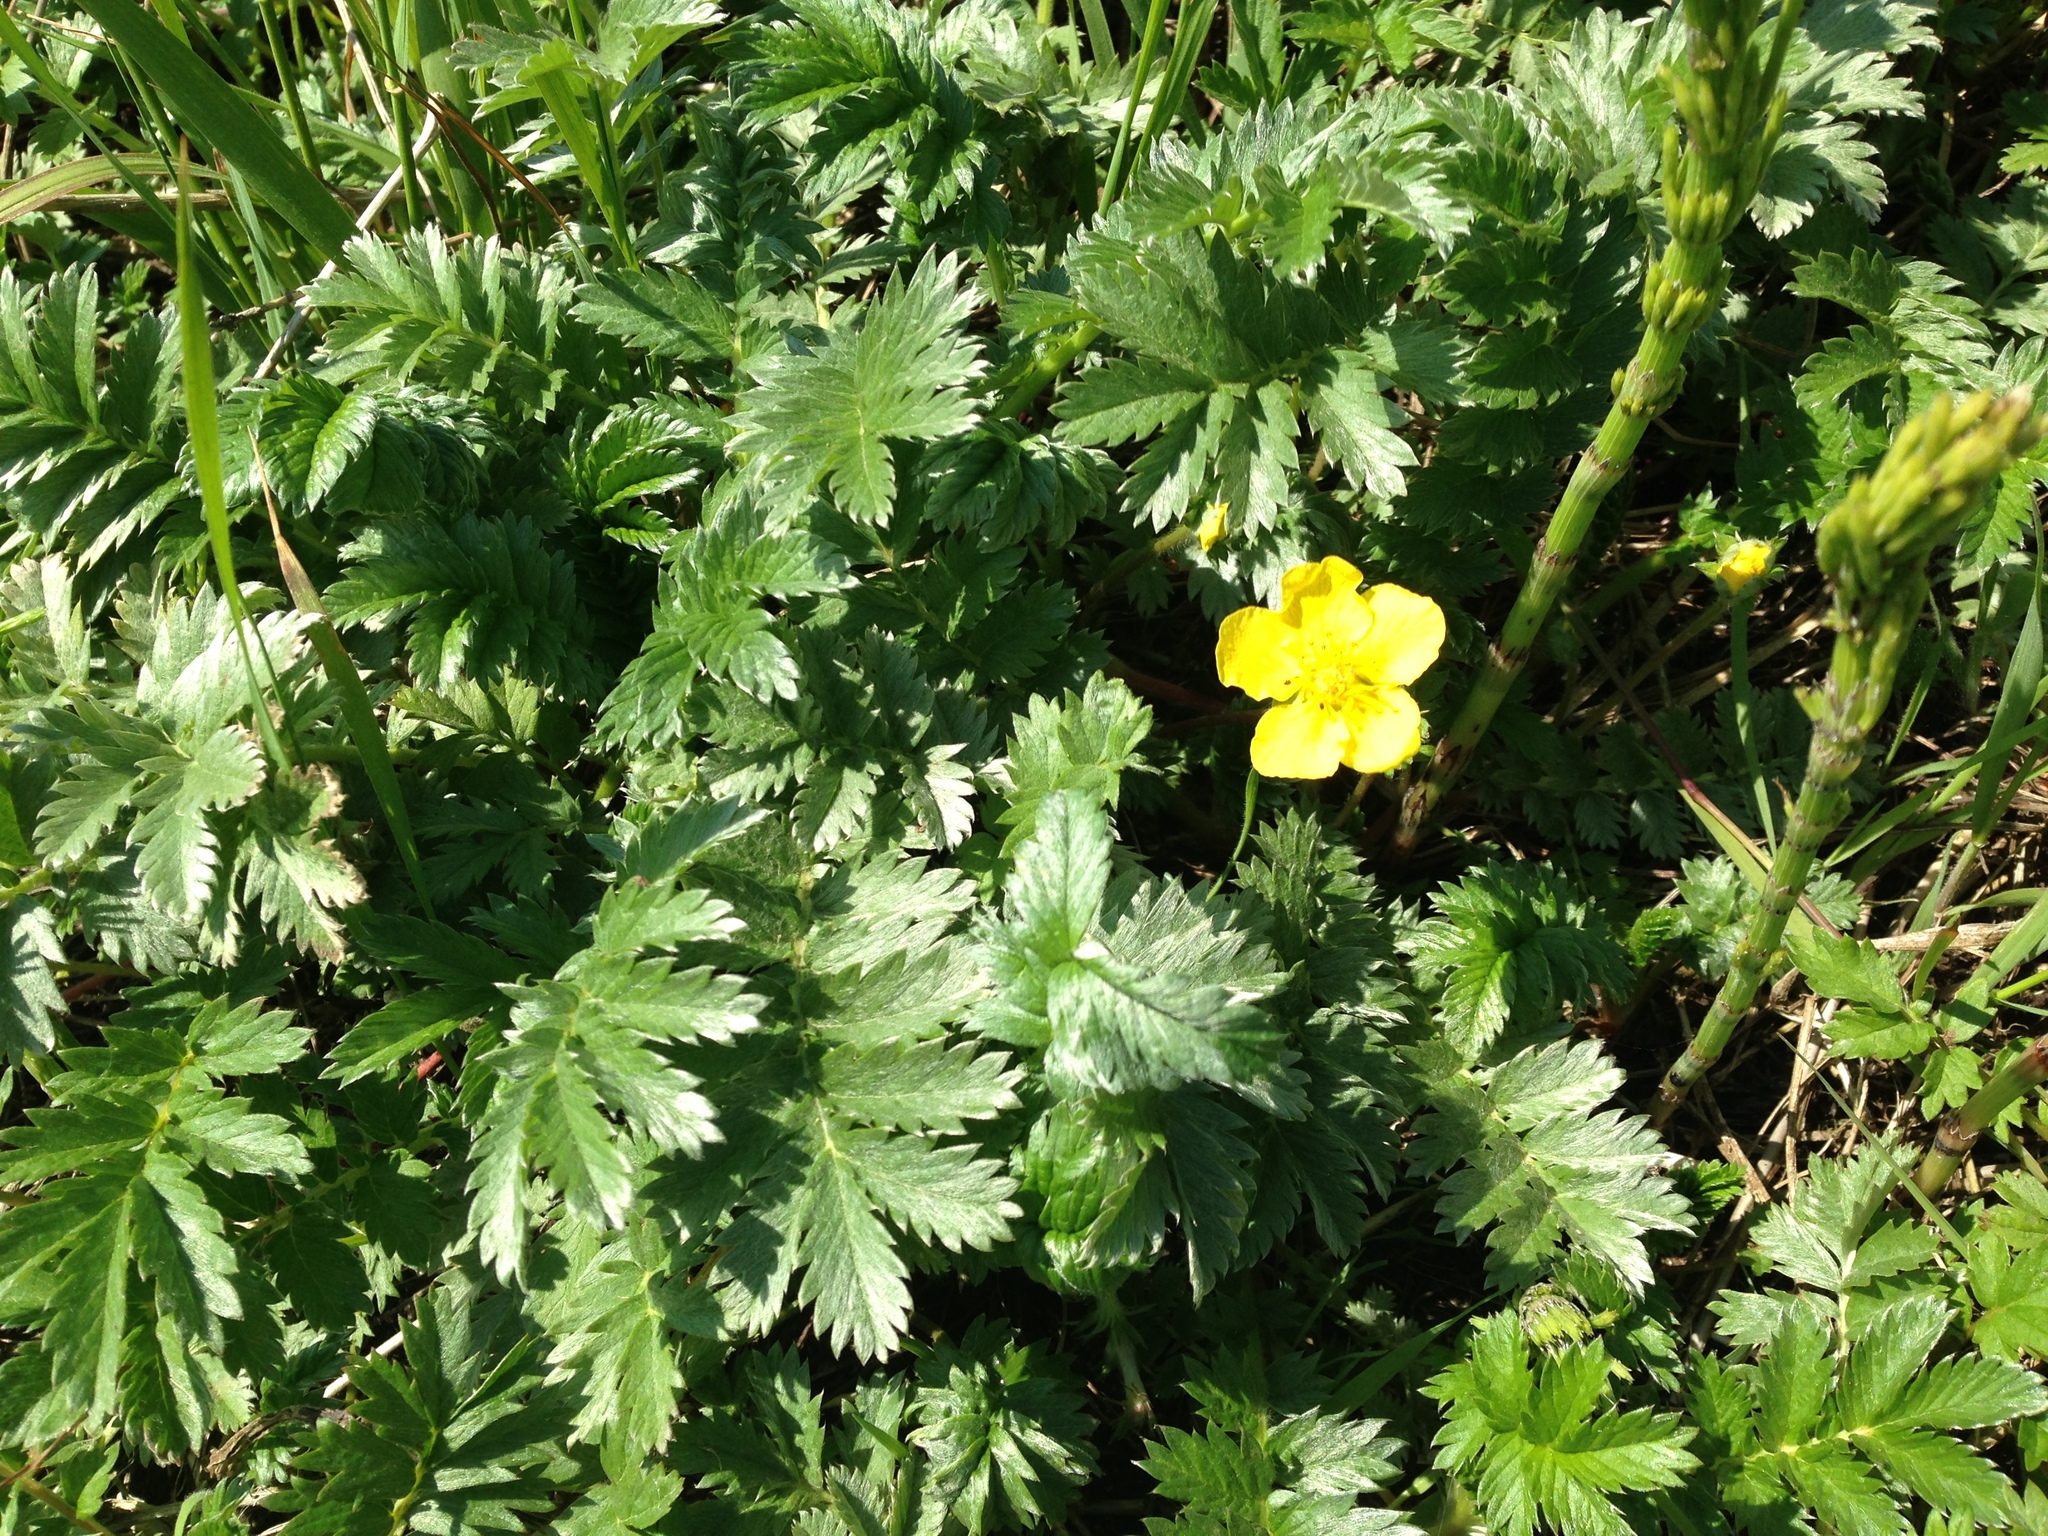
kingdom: Plantae
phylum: Tracheophyta
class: Magnoliopsida
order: Rosales
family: Rosaceae
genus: Argentina
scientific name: Argentina anserina
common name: Common silverweed
